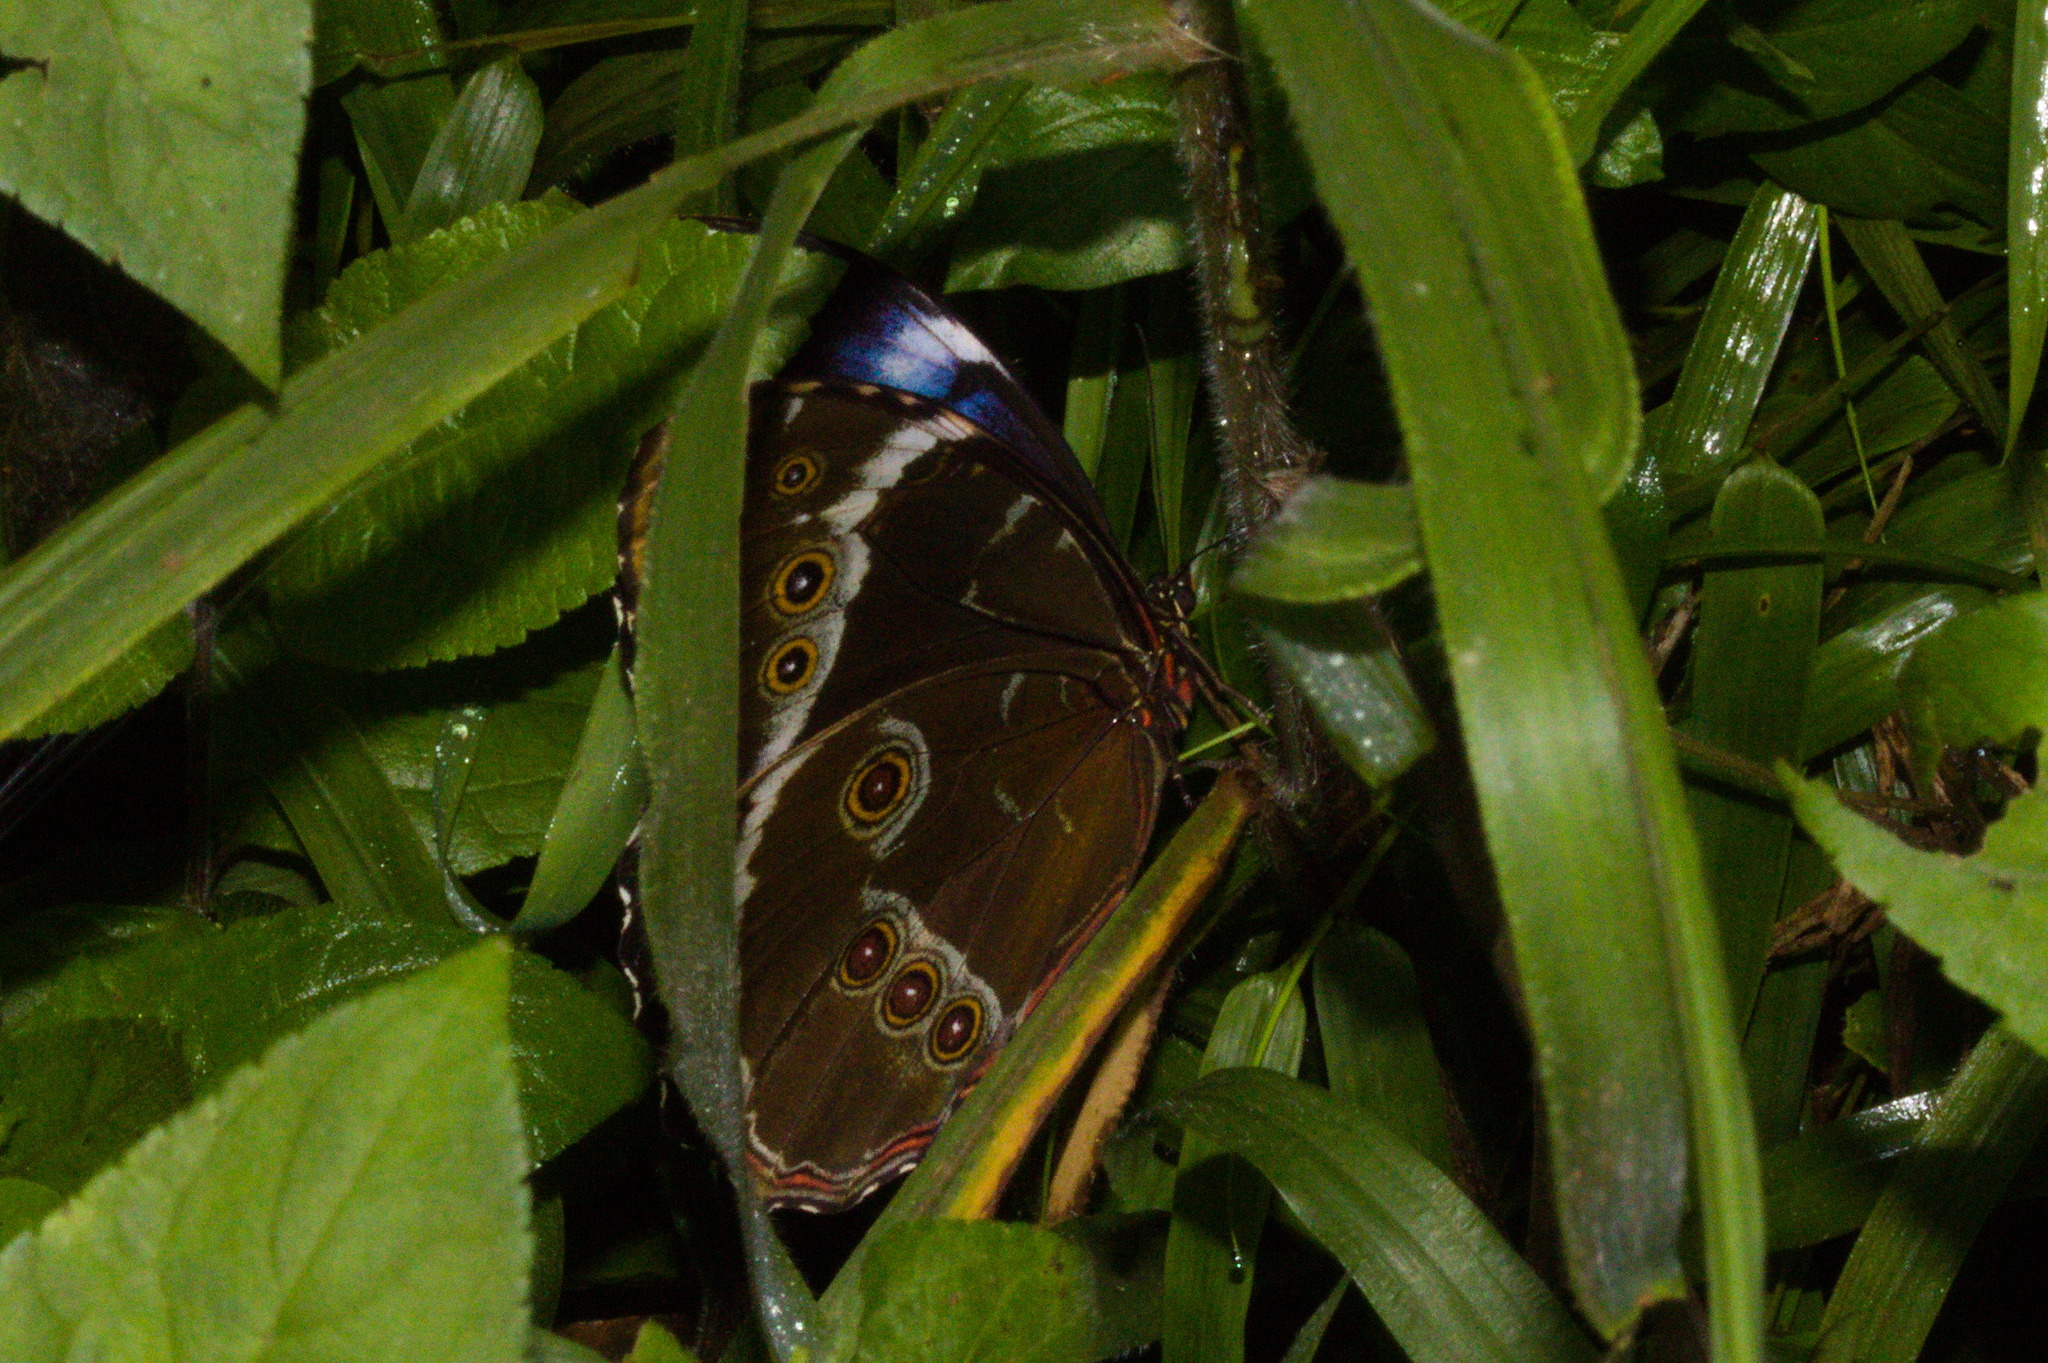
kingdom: Animalia
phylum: Arthropoda
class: Insecta
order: Lepidoptera
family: Nymphalidae
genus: Morpho
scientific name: Morpho helenor
